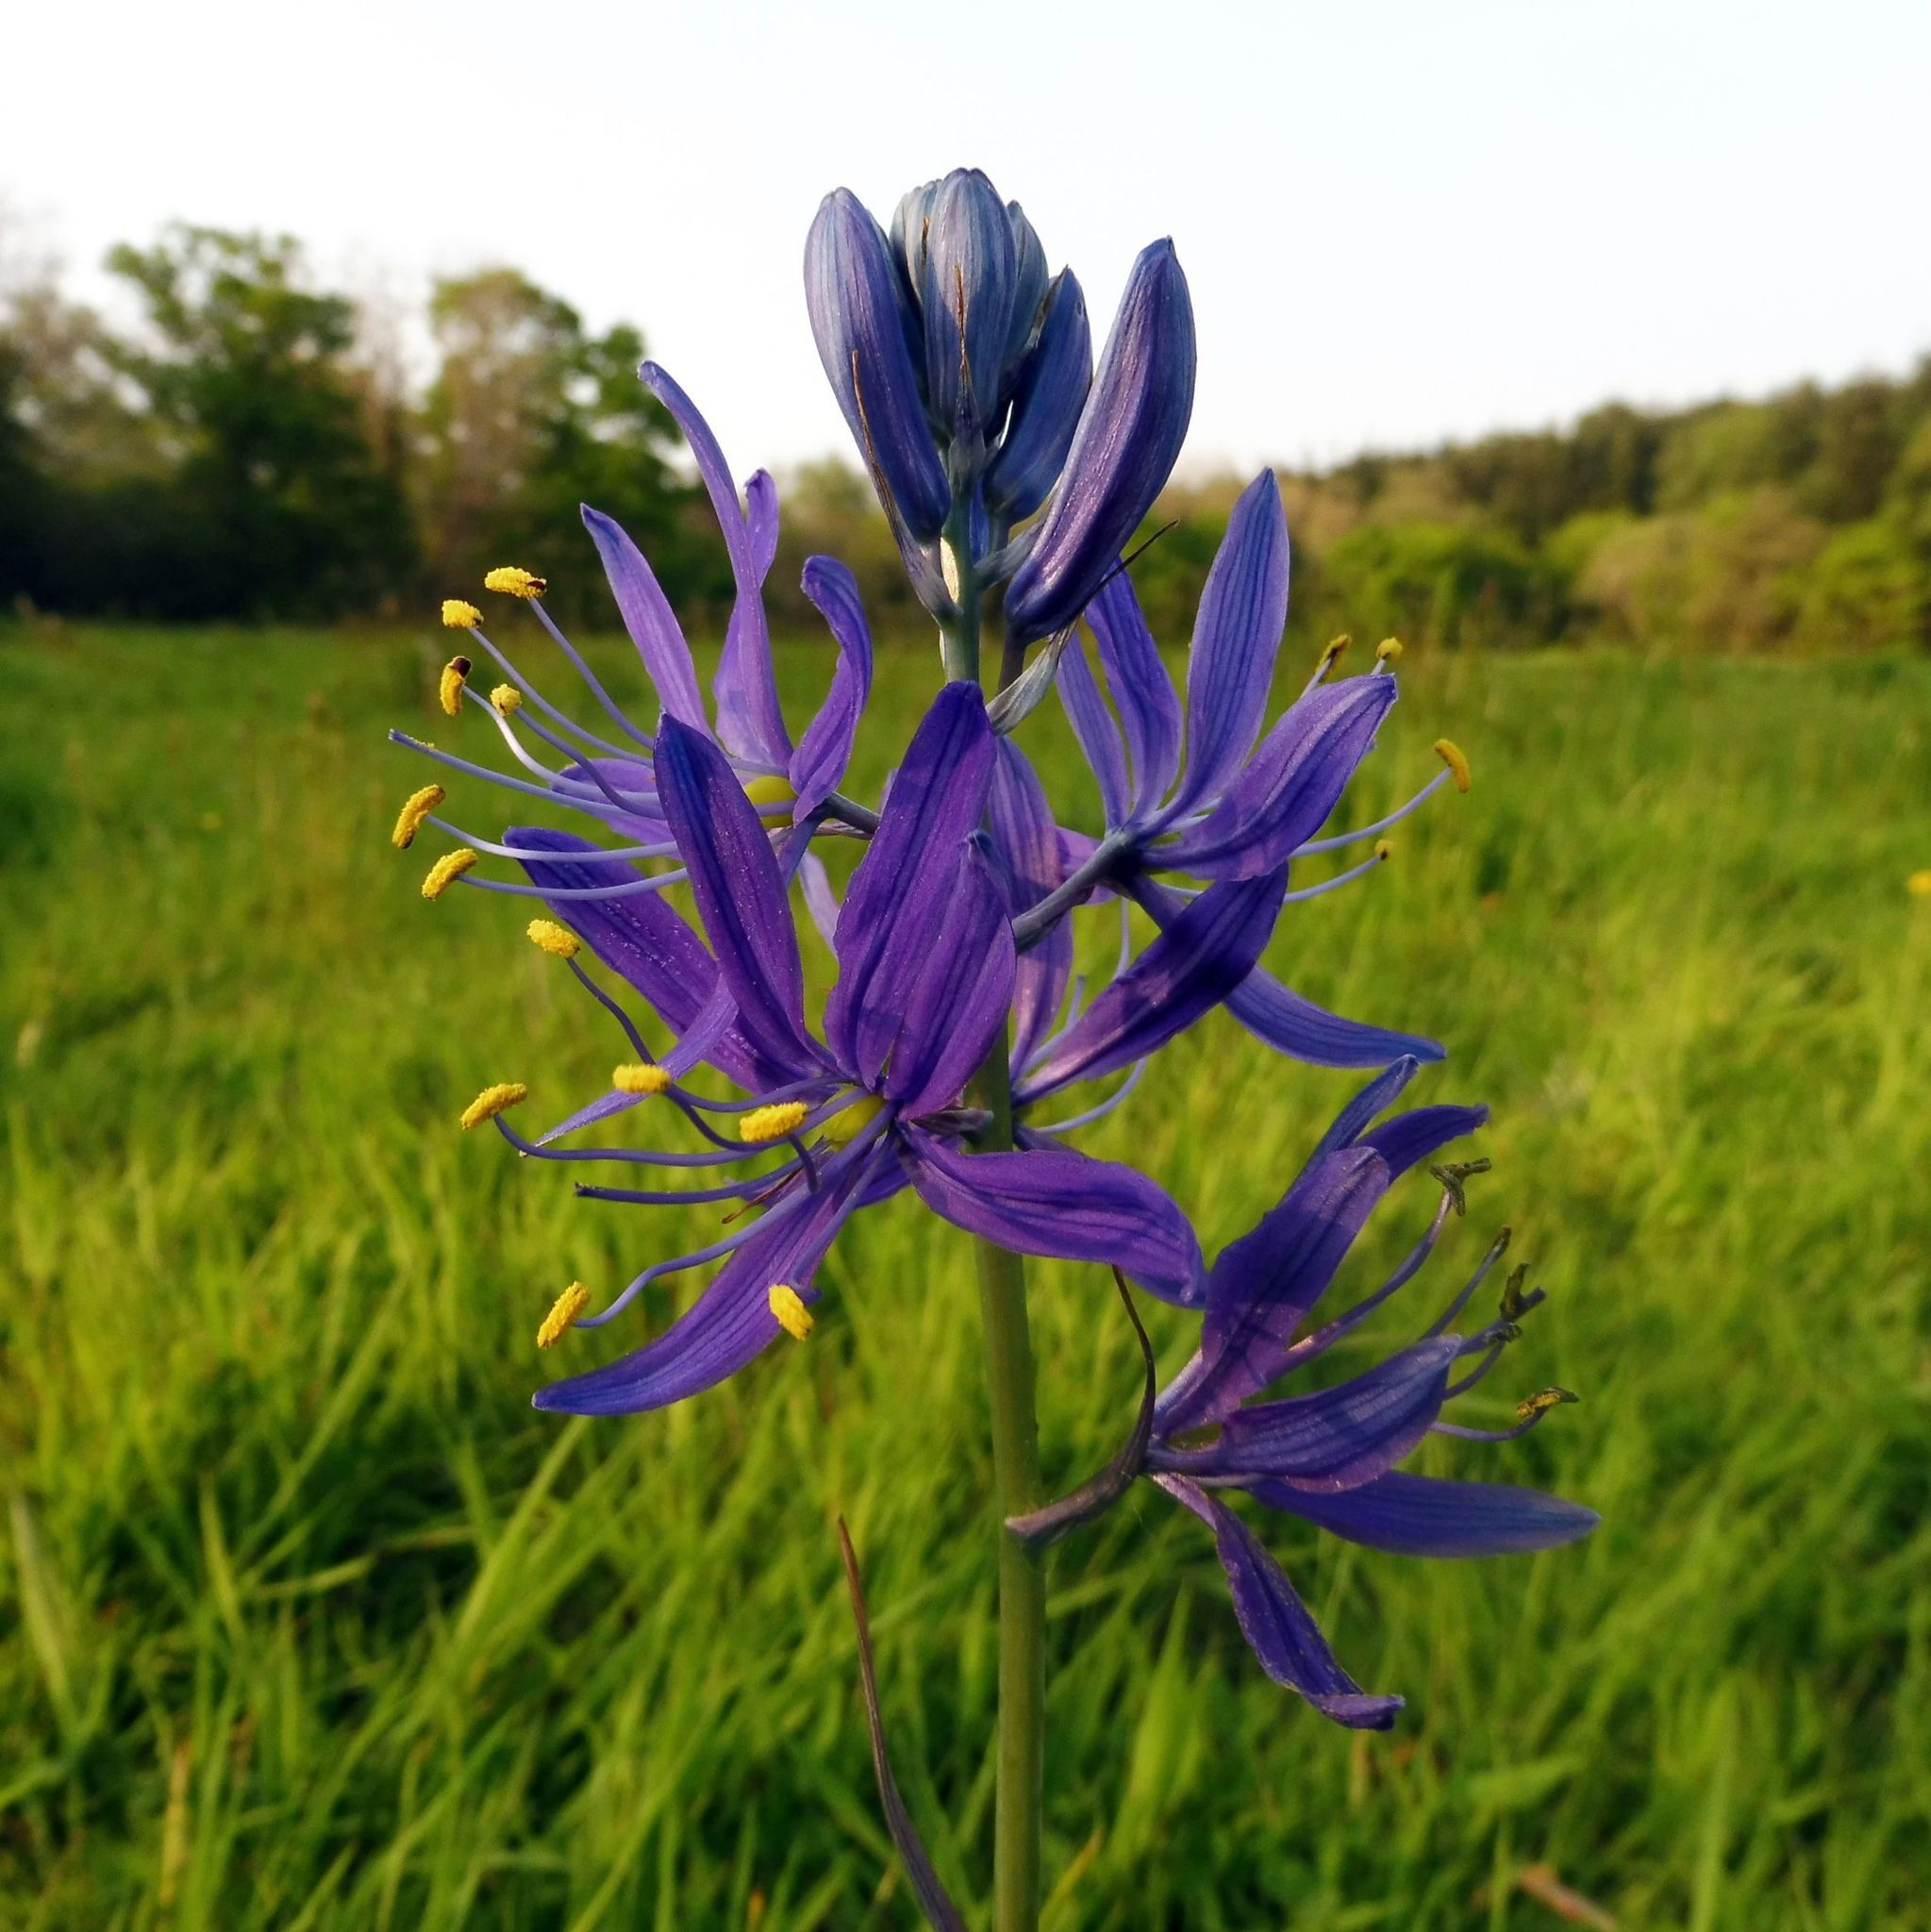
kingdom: Plantae
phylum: Tracheophyta
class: Liliopsida
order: Asparagales
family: Asparagaceae
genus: Camassia
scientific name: Camassia quamash
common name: Common camas
